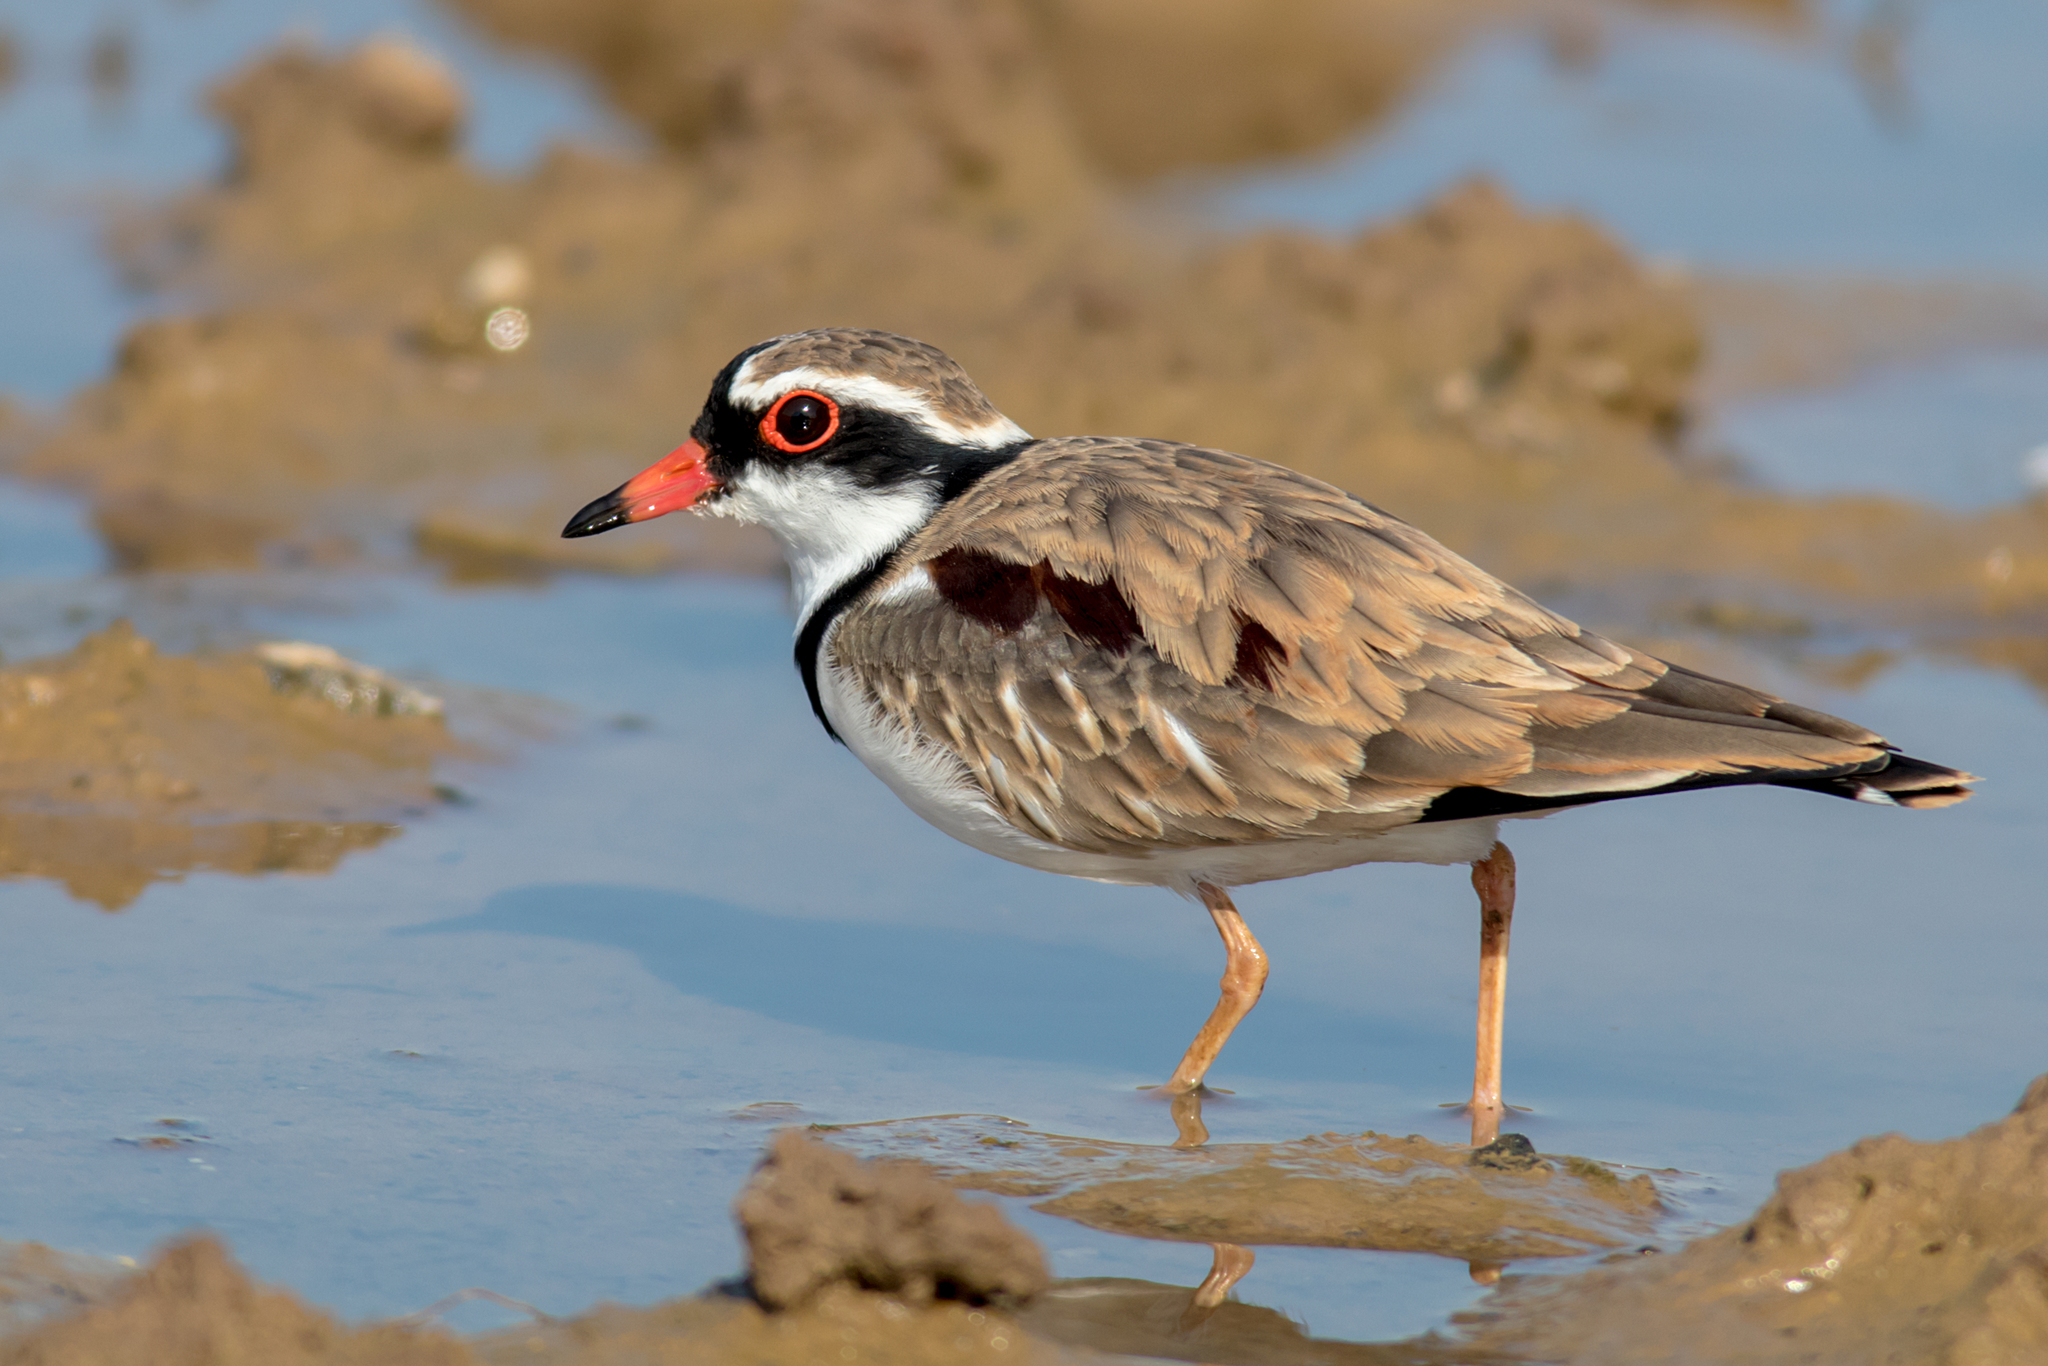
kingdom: Animalia
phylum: Chordata
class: Aves
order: Charadriiformes
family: Charadriidae
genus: Elseyornis
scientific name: Elseyornis melanops
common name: Black-fronted dotterel
